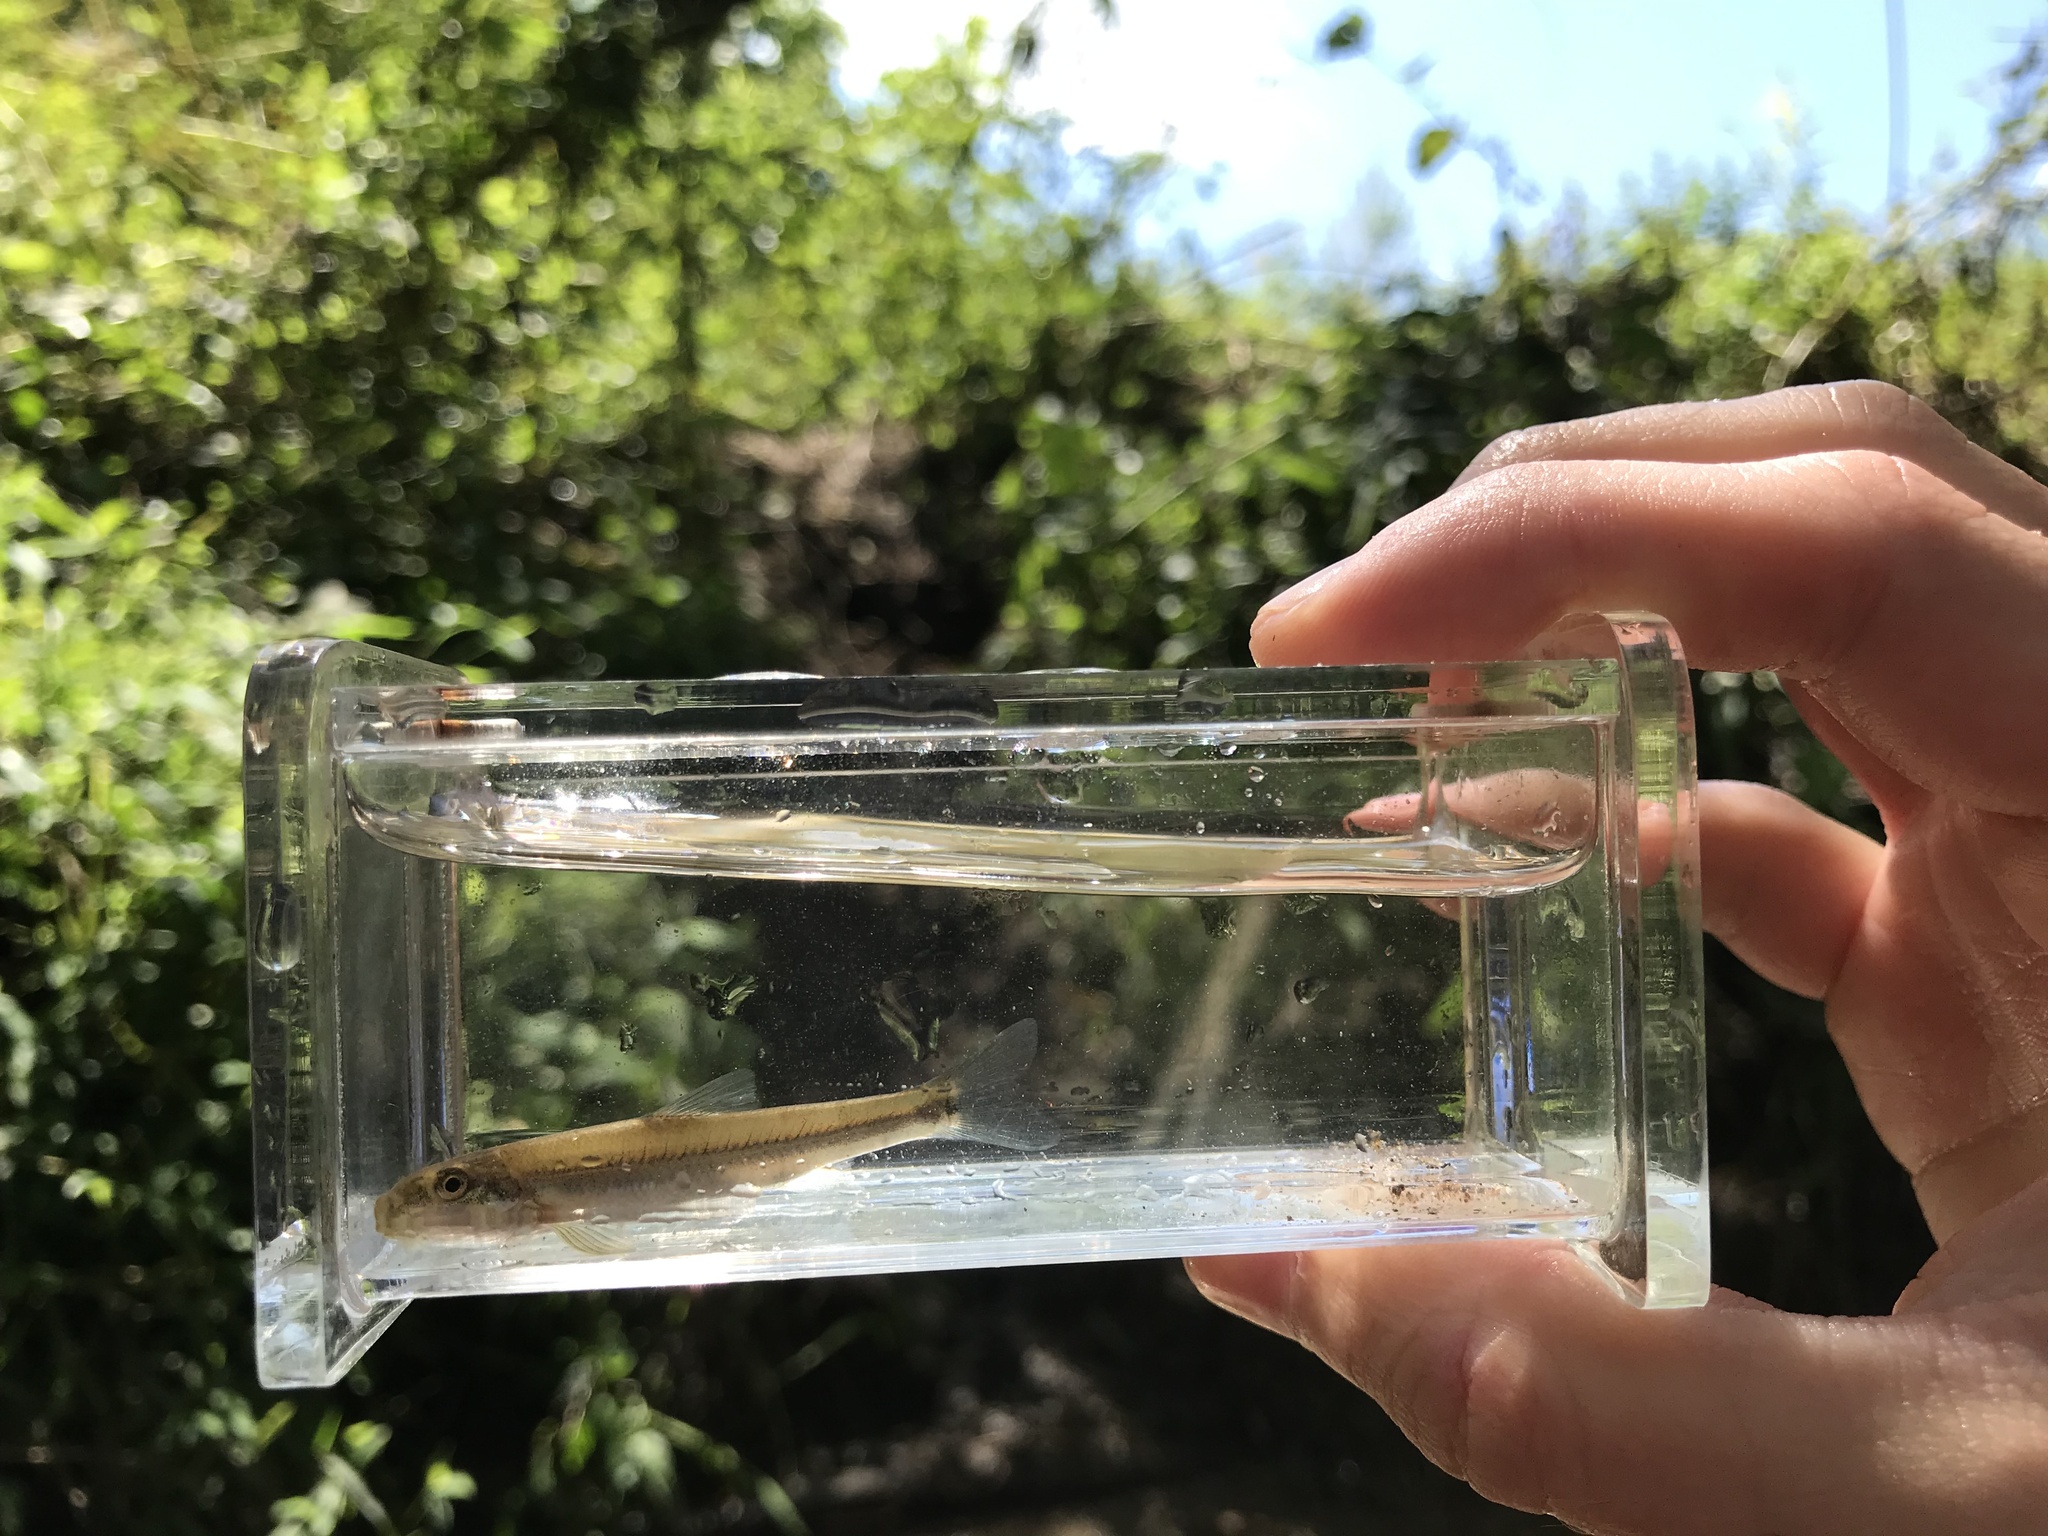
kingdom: Animalia
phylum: Chordata
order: Cypriniformes
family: Cyprinidae
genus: Phenacobius
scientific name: Phenacobius crassilabrum
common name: Fatlips minnow
